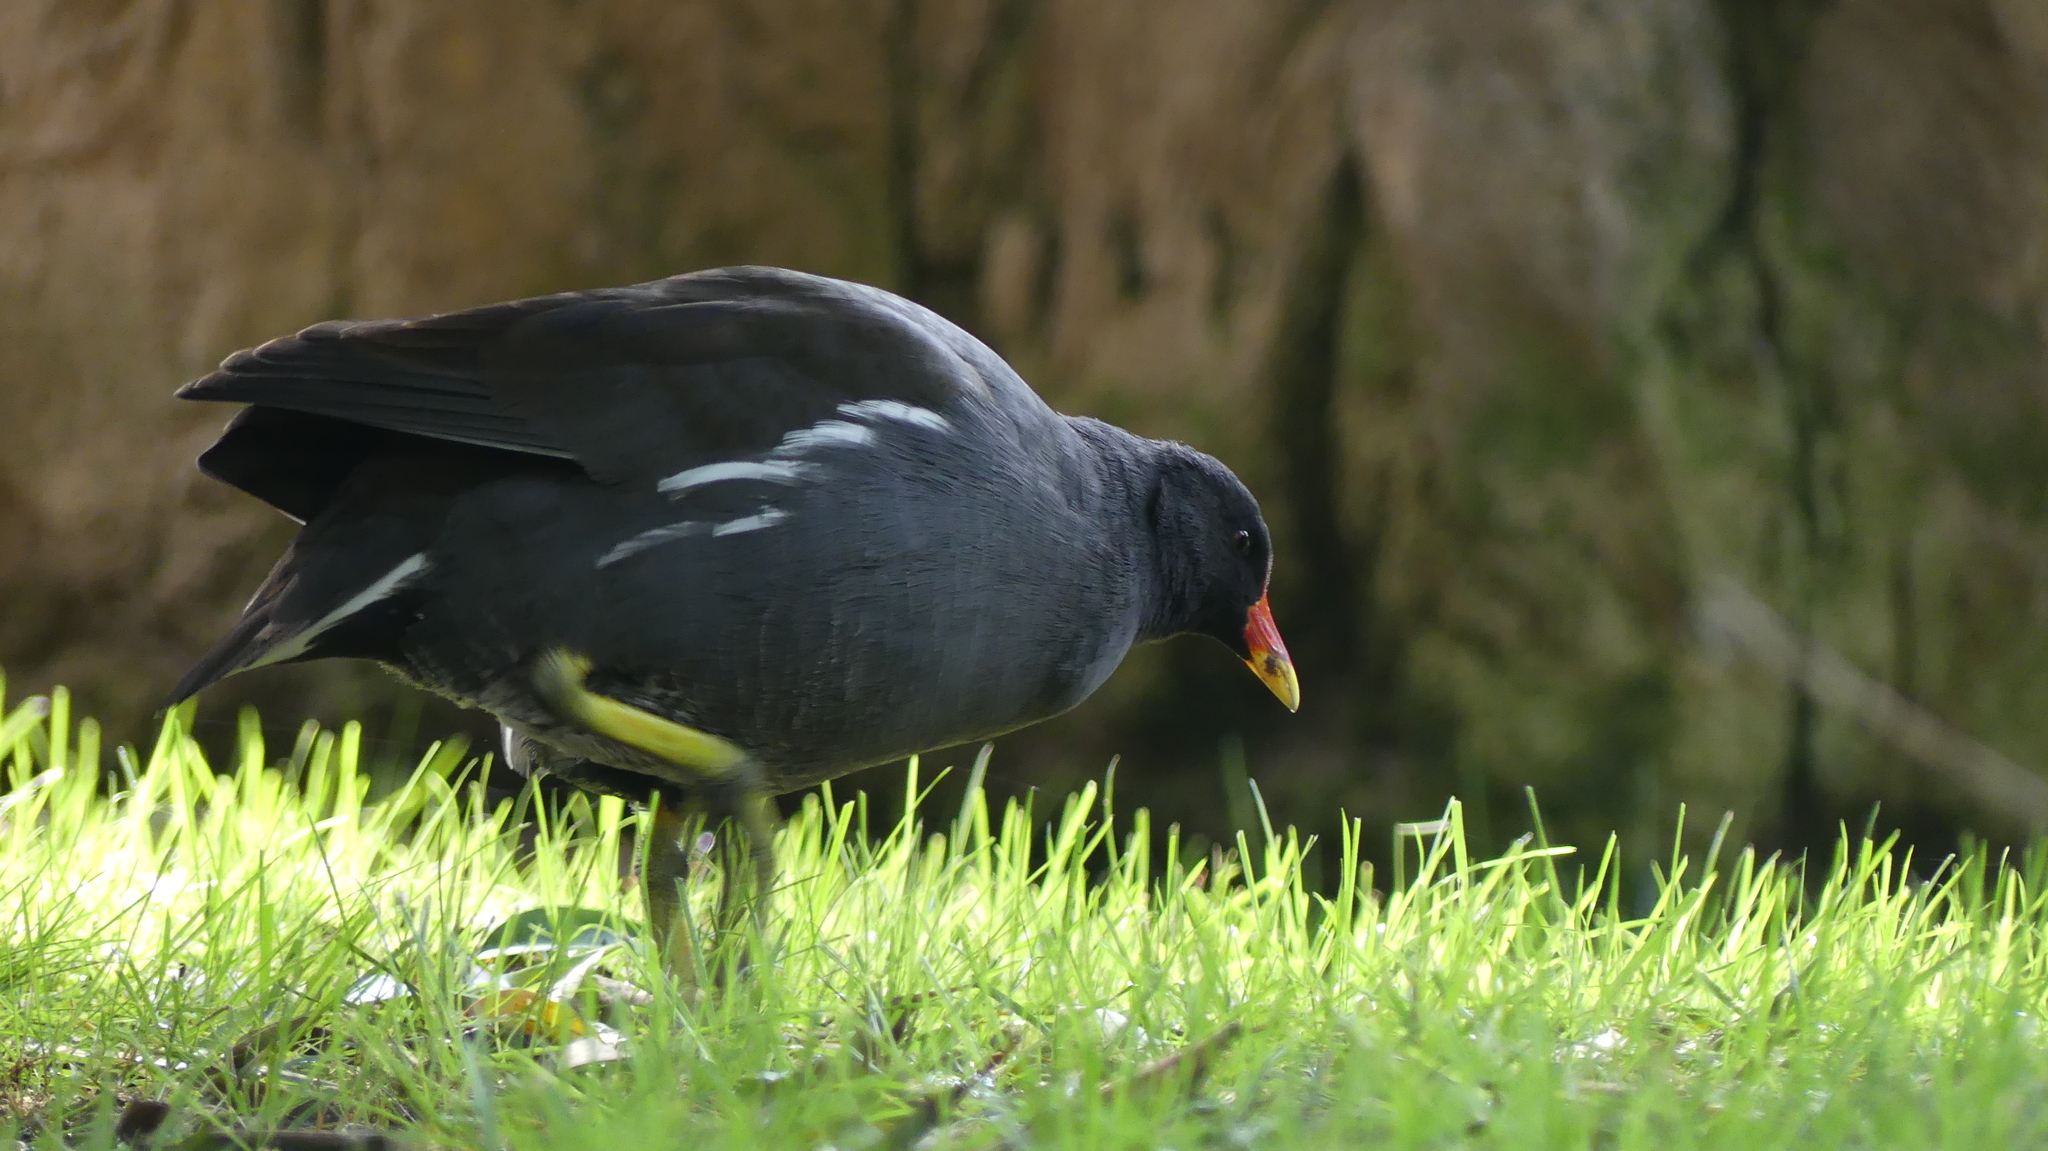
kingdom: Animalia
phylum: Chordata
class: Aves
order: Gruiformes
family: Rallidae
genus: Gallinula
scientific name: Gallinula chloropus
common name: Common moorhen
